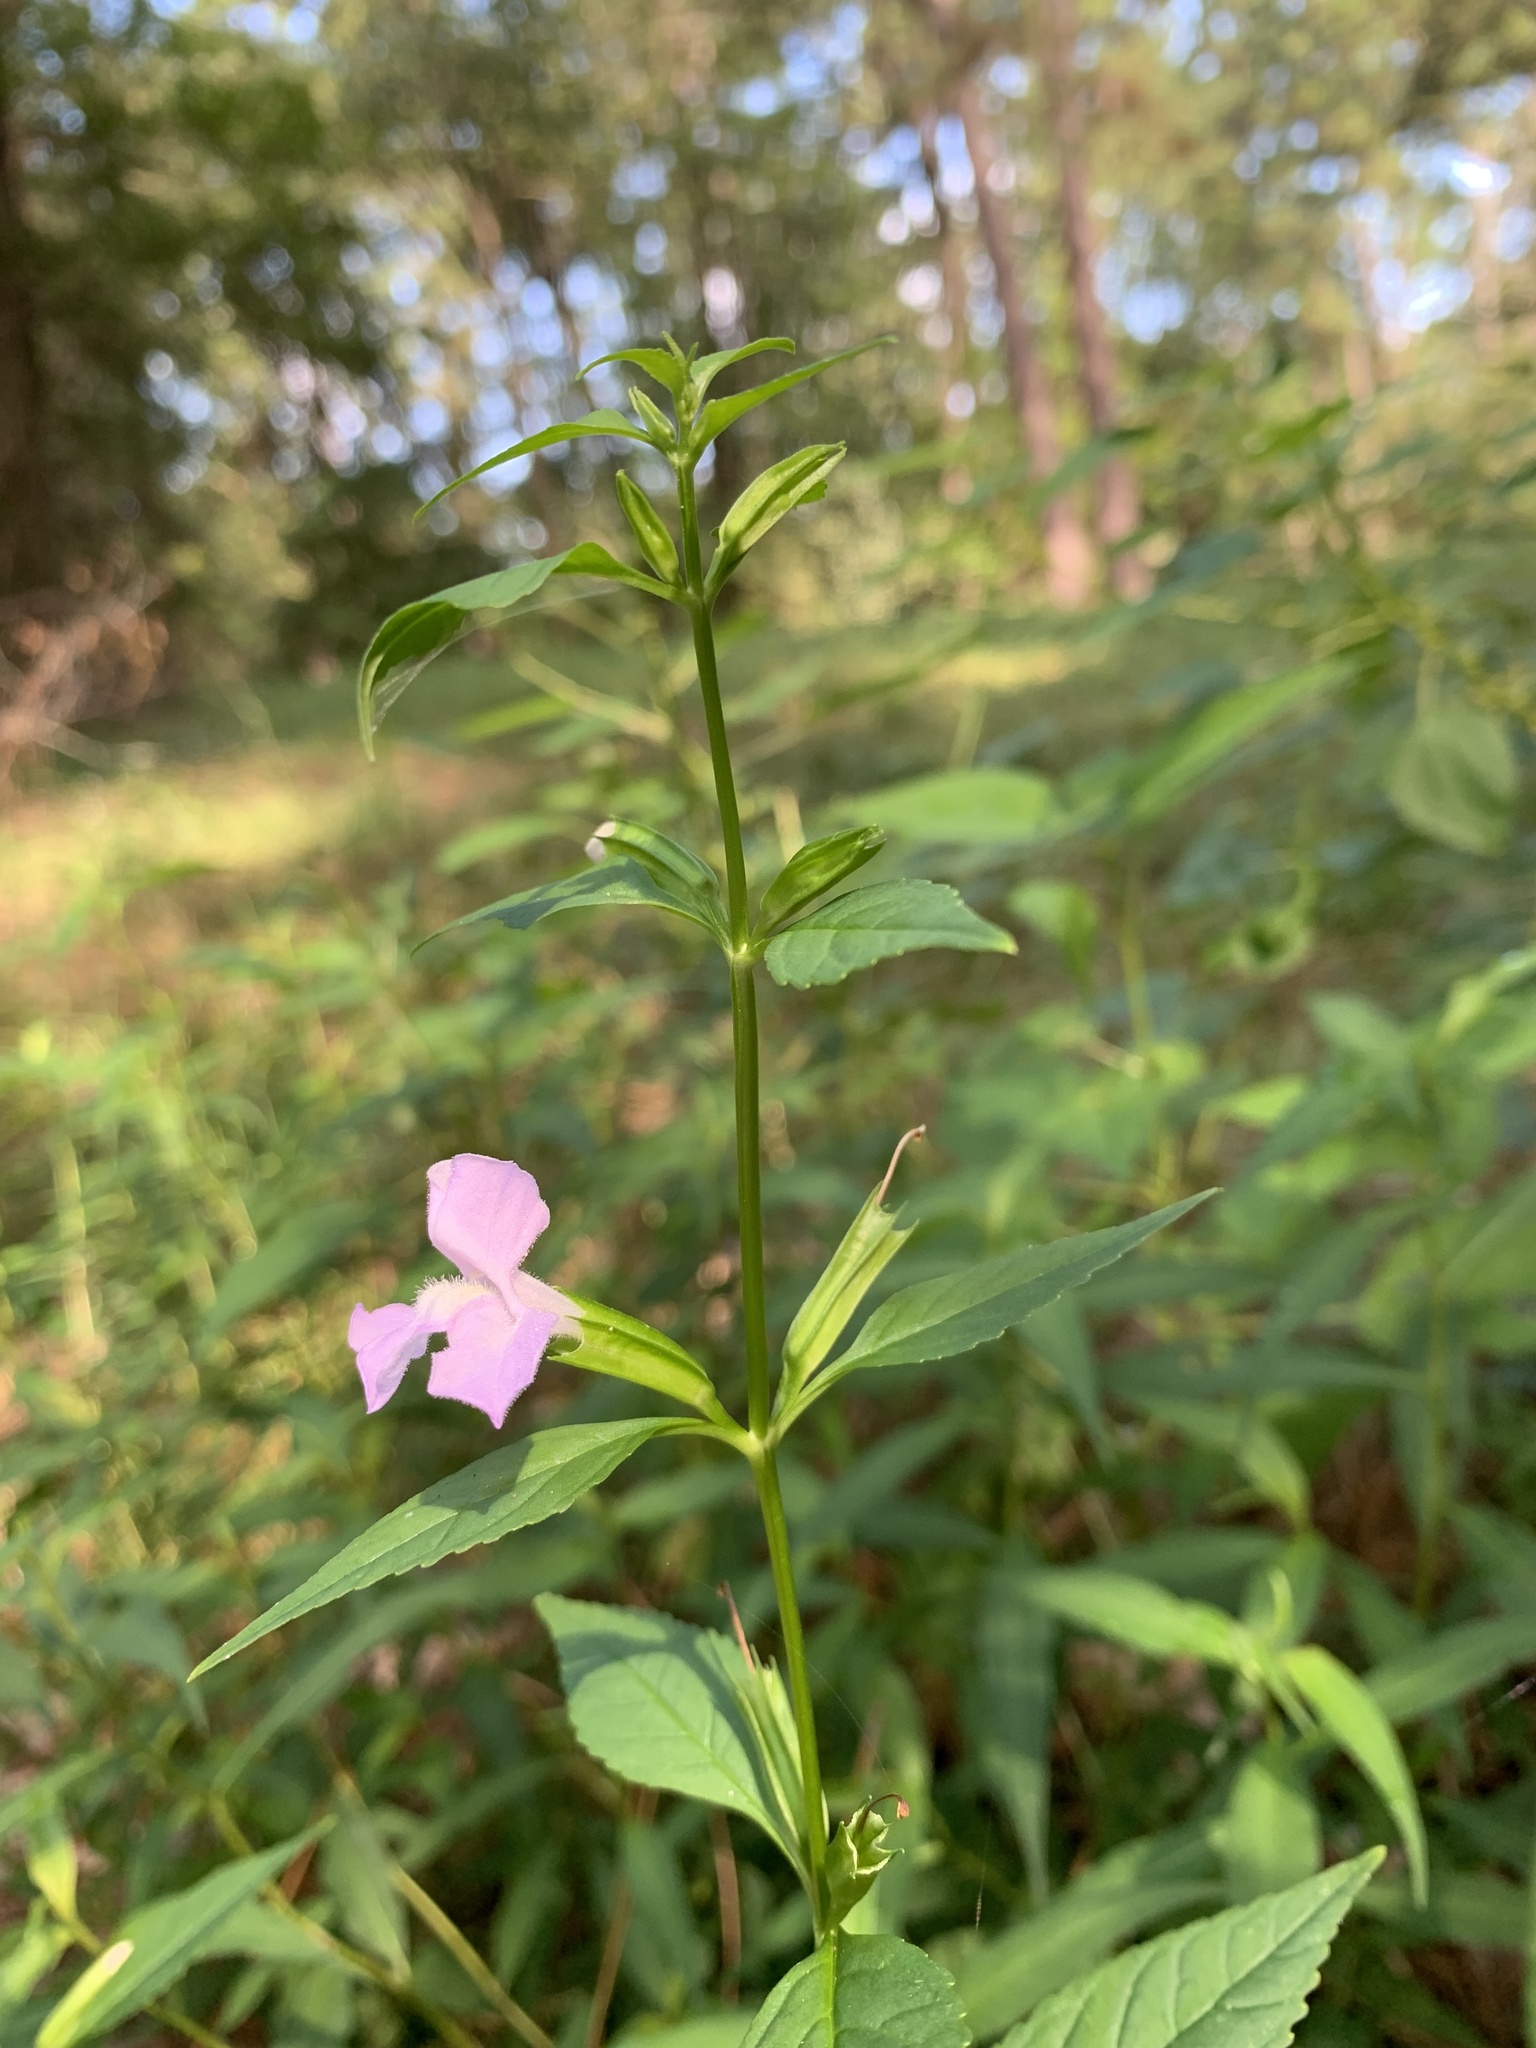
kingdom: Plantae
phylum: Tracheophyta
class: Magnoliopsida
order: Lamiales
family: Phrymaceae
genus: Mimulus
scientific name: Mimulus alatus
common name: Sharp-wing monkey-flower
